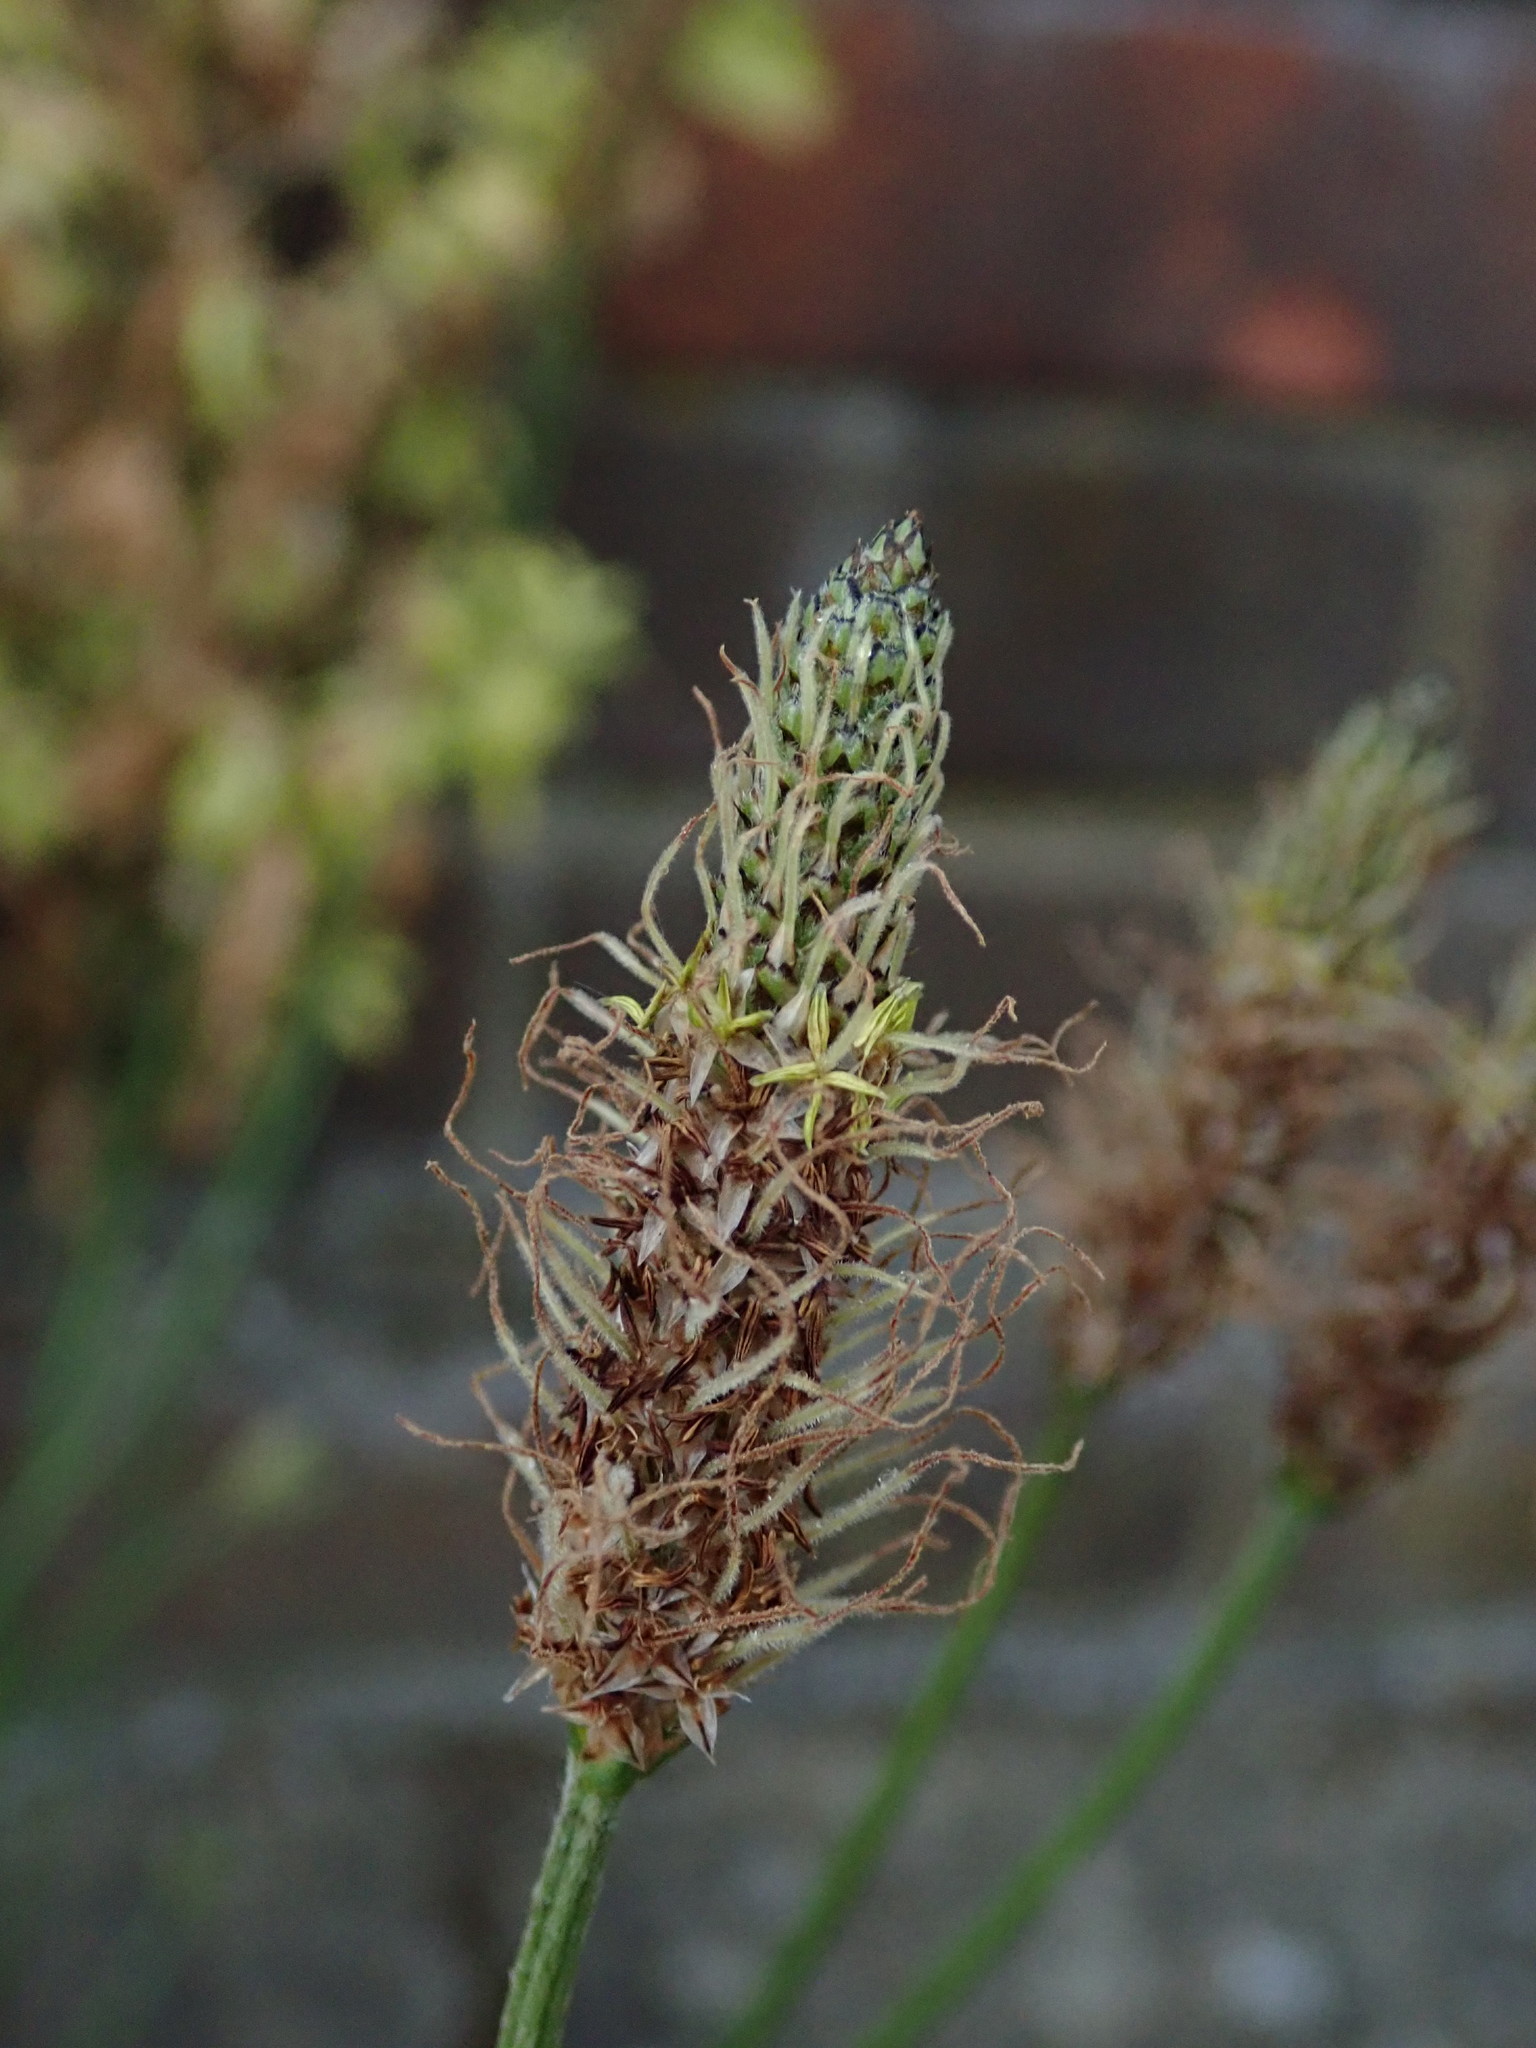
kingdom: Plantae
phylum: Tracheophyta
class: Magnoliopsida
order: Lamiales
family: Plantaginaceae
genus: Plantago
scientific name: Plantago lanceolata
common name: Ribwort plantain
